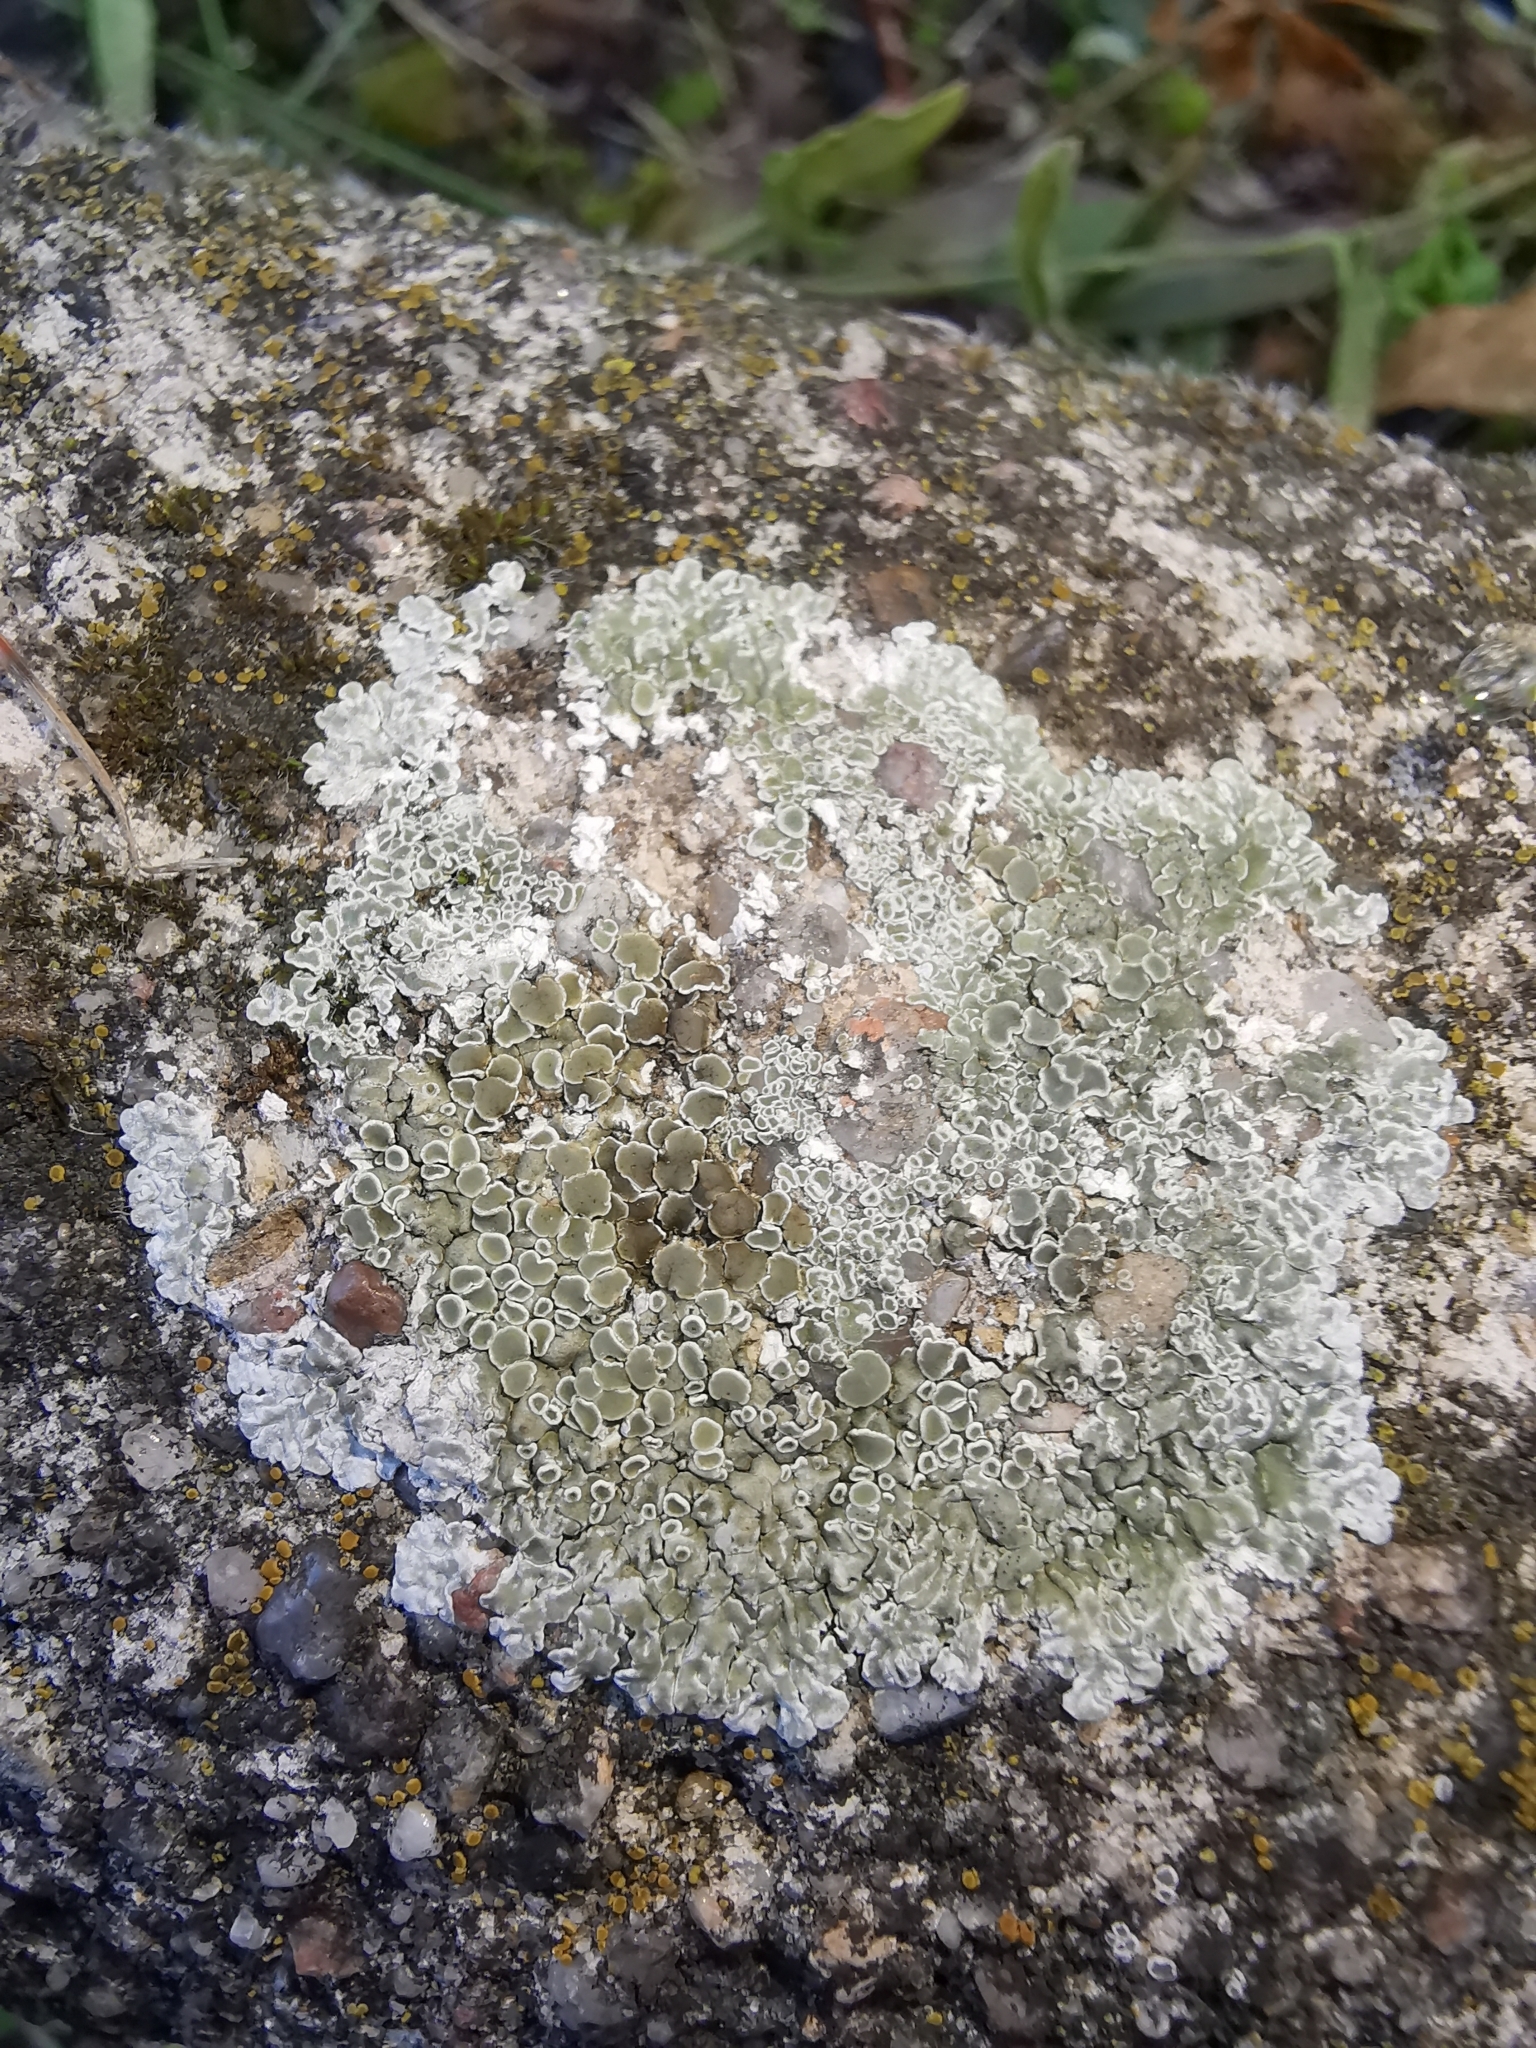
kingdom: Fungi
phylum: Ascomycota
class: Lecanoromycetes
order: Lecanorales
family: Lecanoraceae
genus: Protoparmeliopsis
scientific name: Protoparmeliopsis muralis
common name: Stonewall rim lichen
